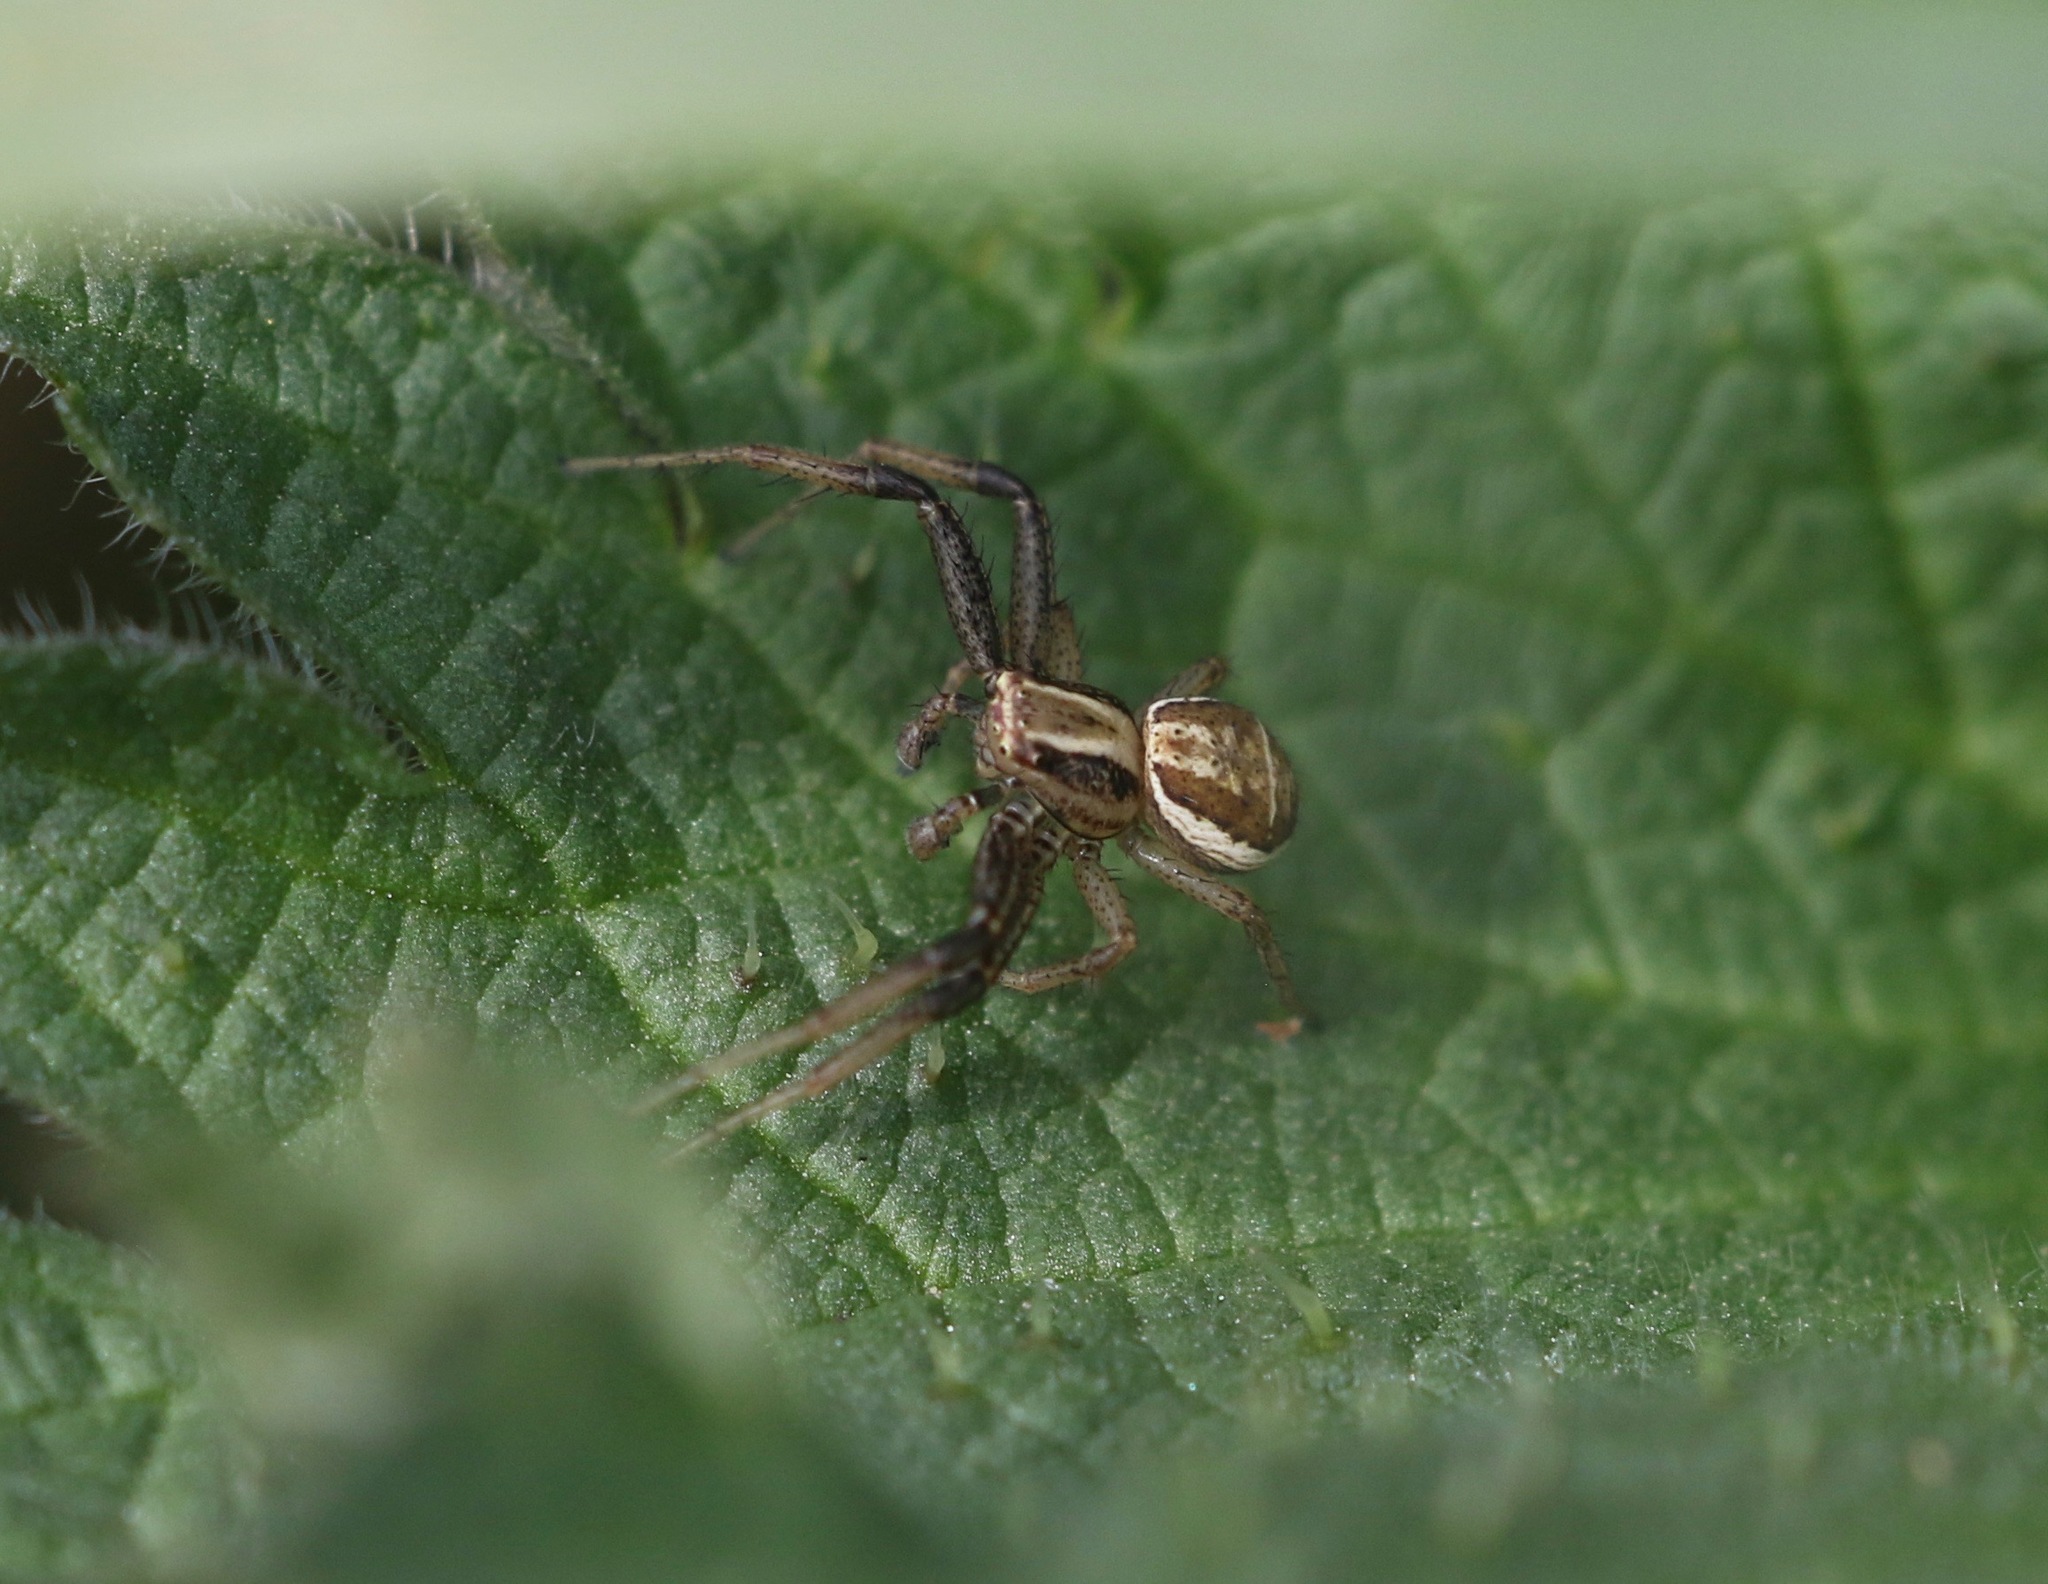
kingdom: Animalia
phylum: Arthropoda
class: Arachnida
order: Araneae
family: Thomisidae
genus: Xysticus
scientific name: Xysticus ulmi
